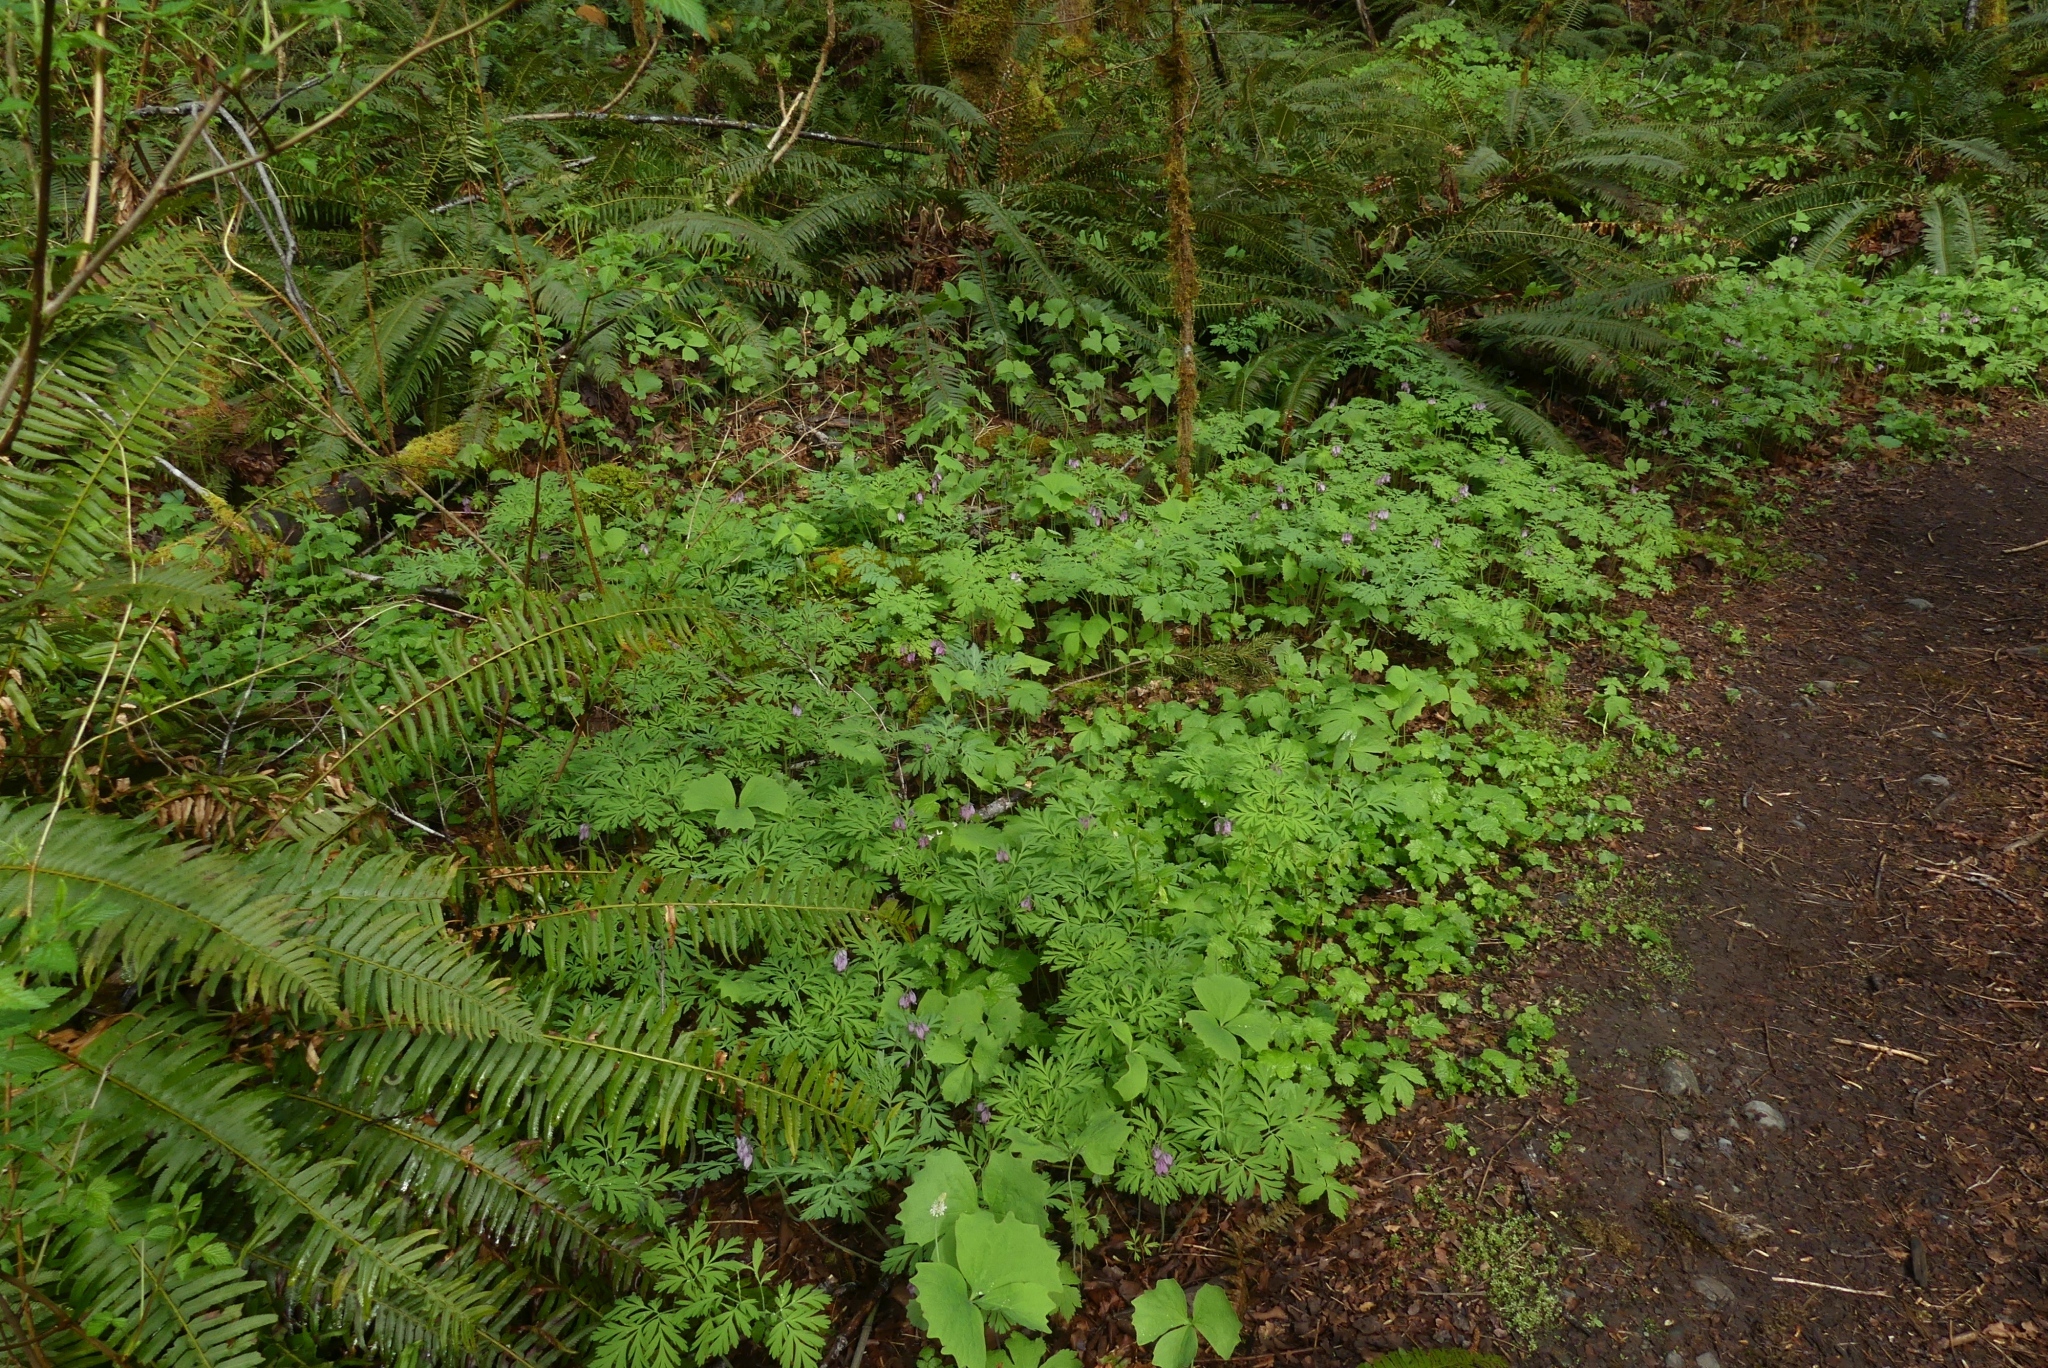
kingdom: Plantae
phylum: Tracheophyta
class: Magnoliopsida
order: Ranunculales
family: Papaveraceae
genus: Dicentra
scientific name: Dicentra formosa
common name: Bleeding-heart
